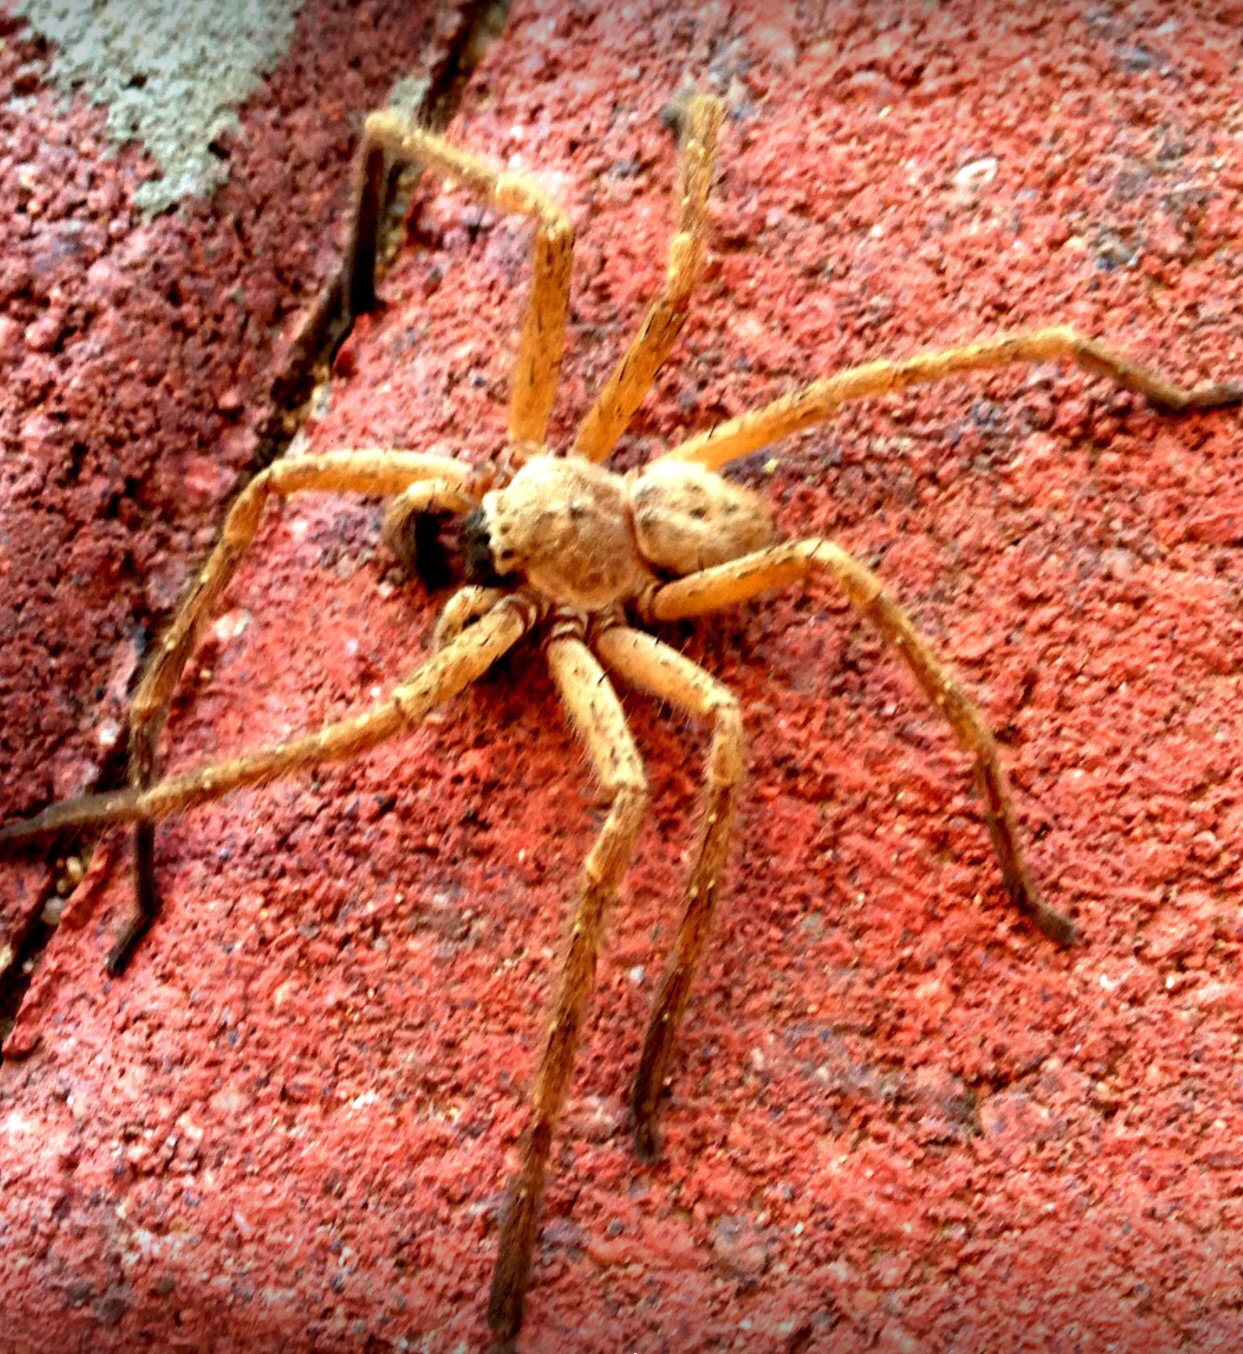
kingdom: Animalia
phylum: Arthropoda
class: Arachnida
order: Araneae
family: Sparassidae
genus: Olios
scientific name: Olios giganteus
